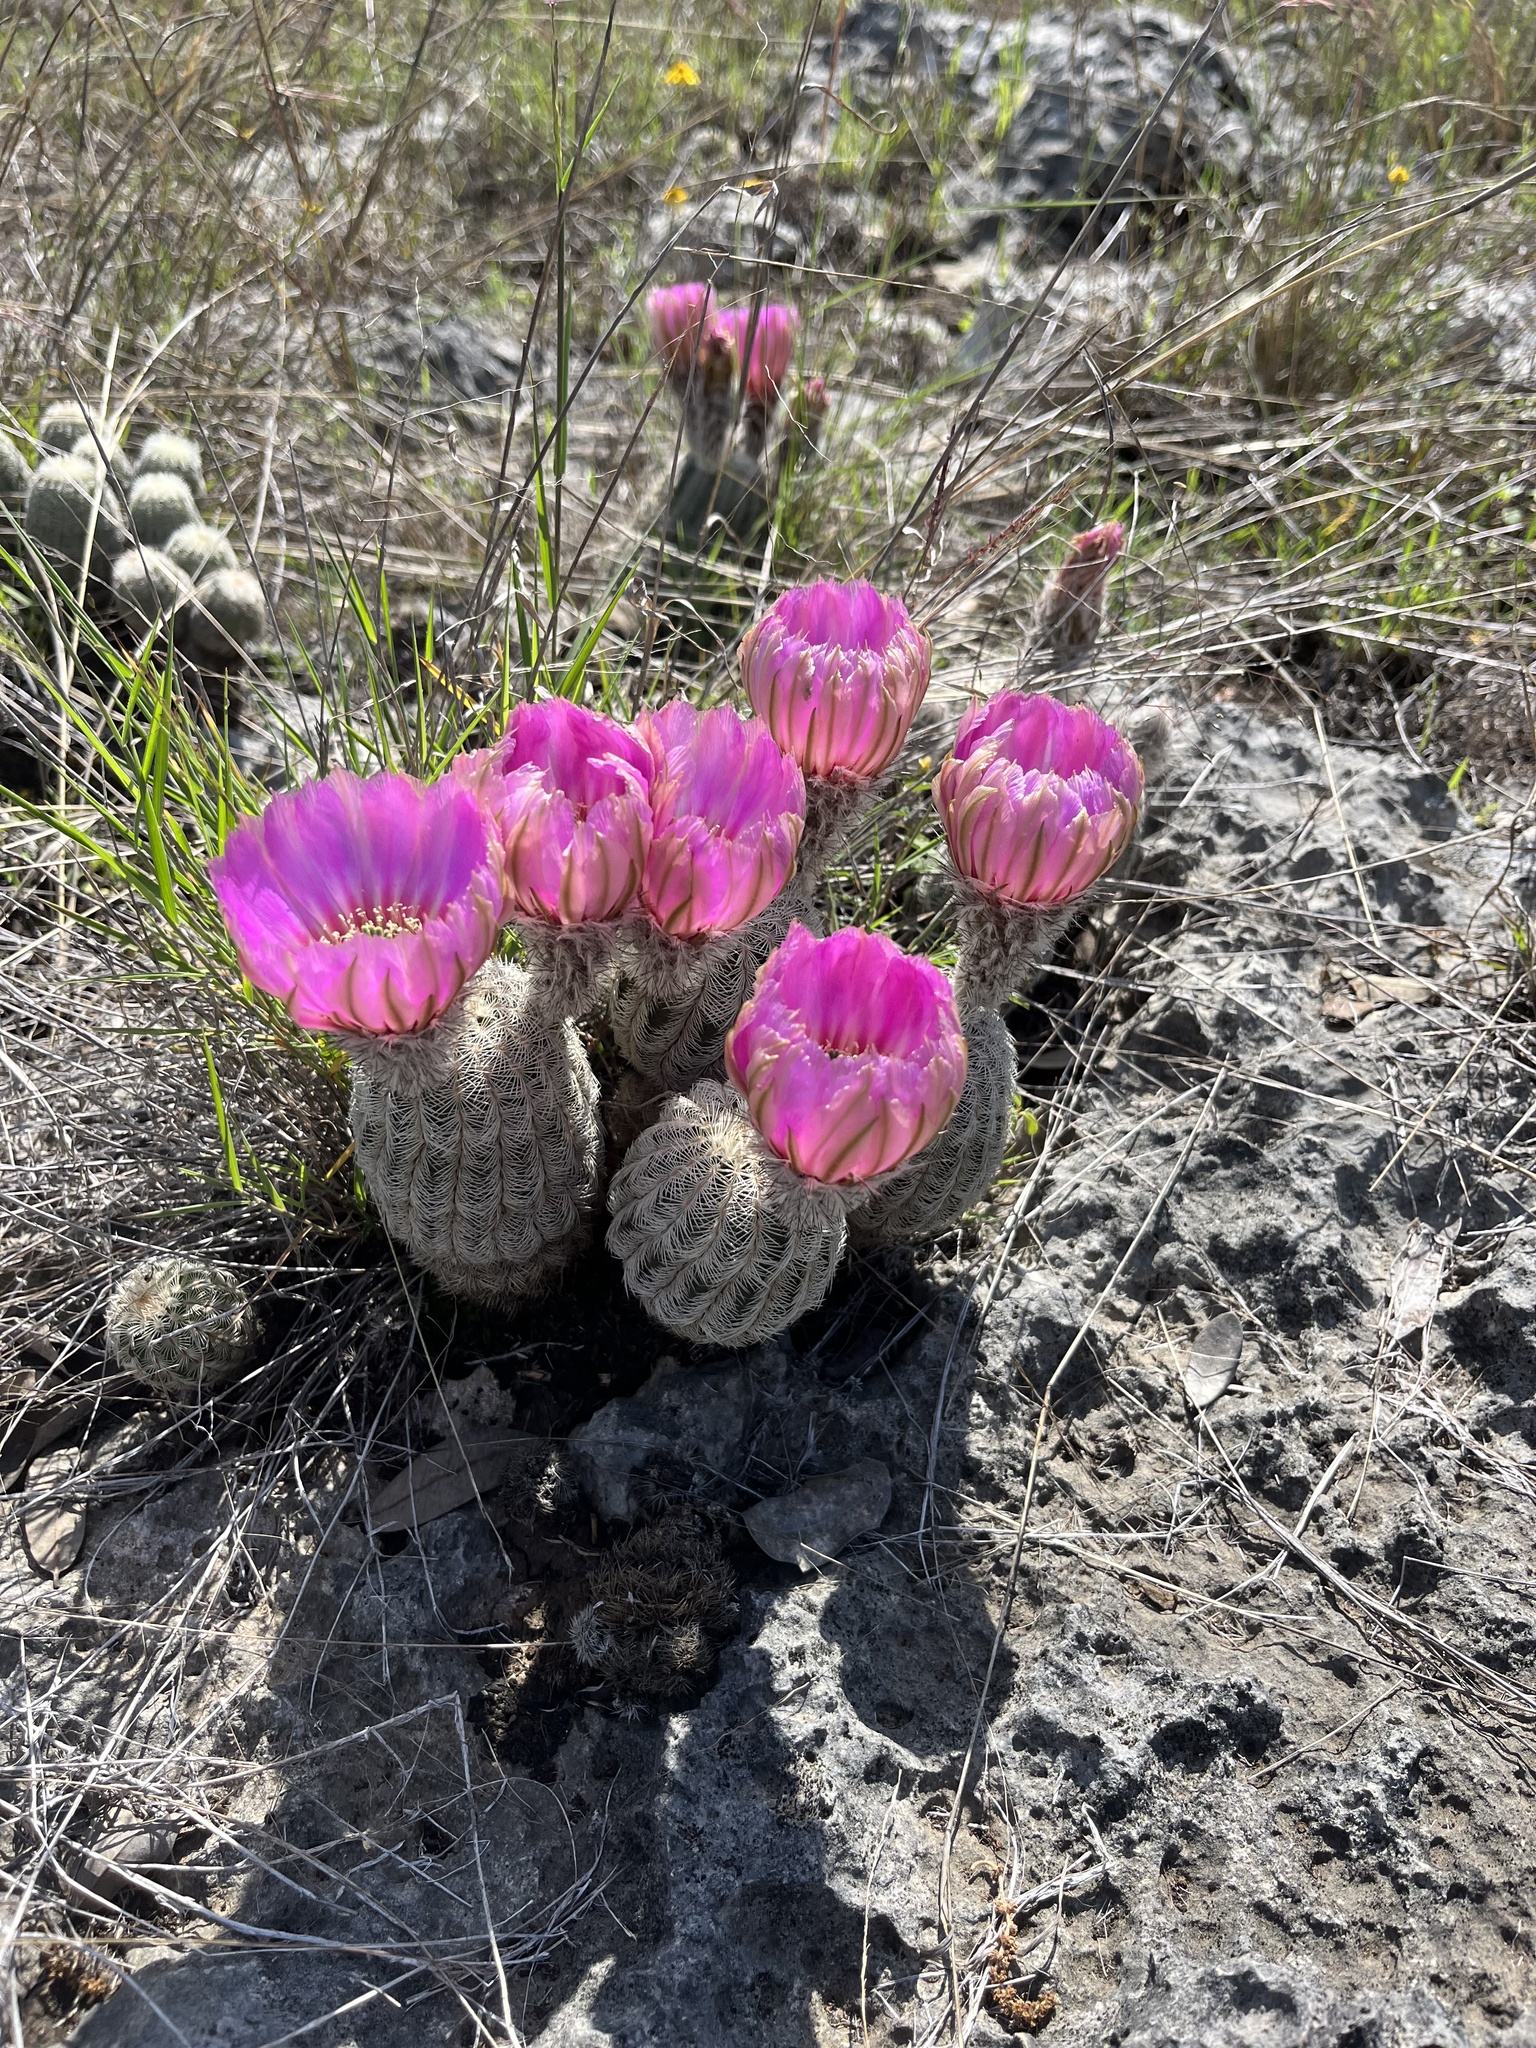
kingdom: Plantae
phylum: Tracheophyta
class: Magnoliopsida
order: Caryophyllales
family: Cactaceae
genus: Echinocereus
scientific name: Echinocereus reichenbachii
